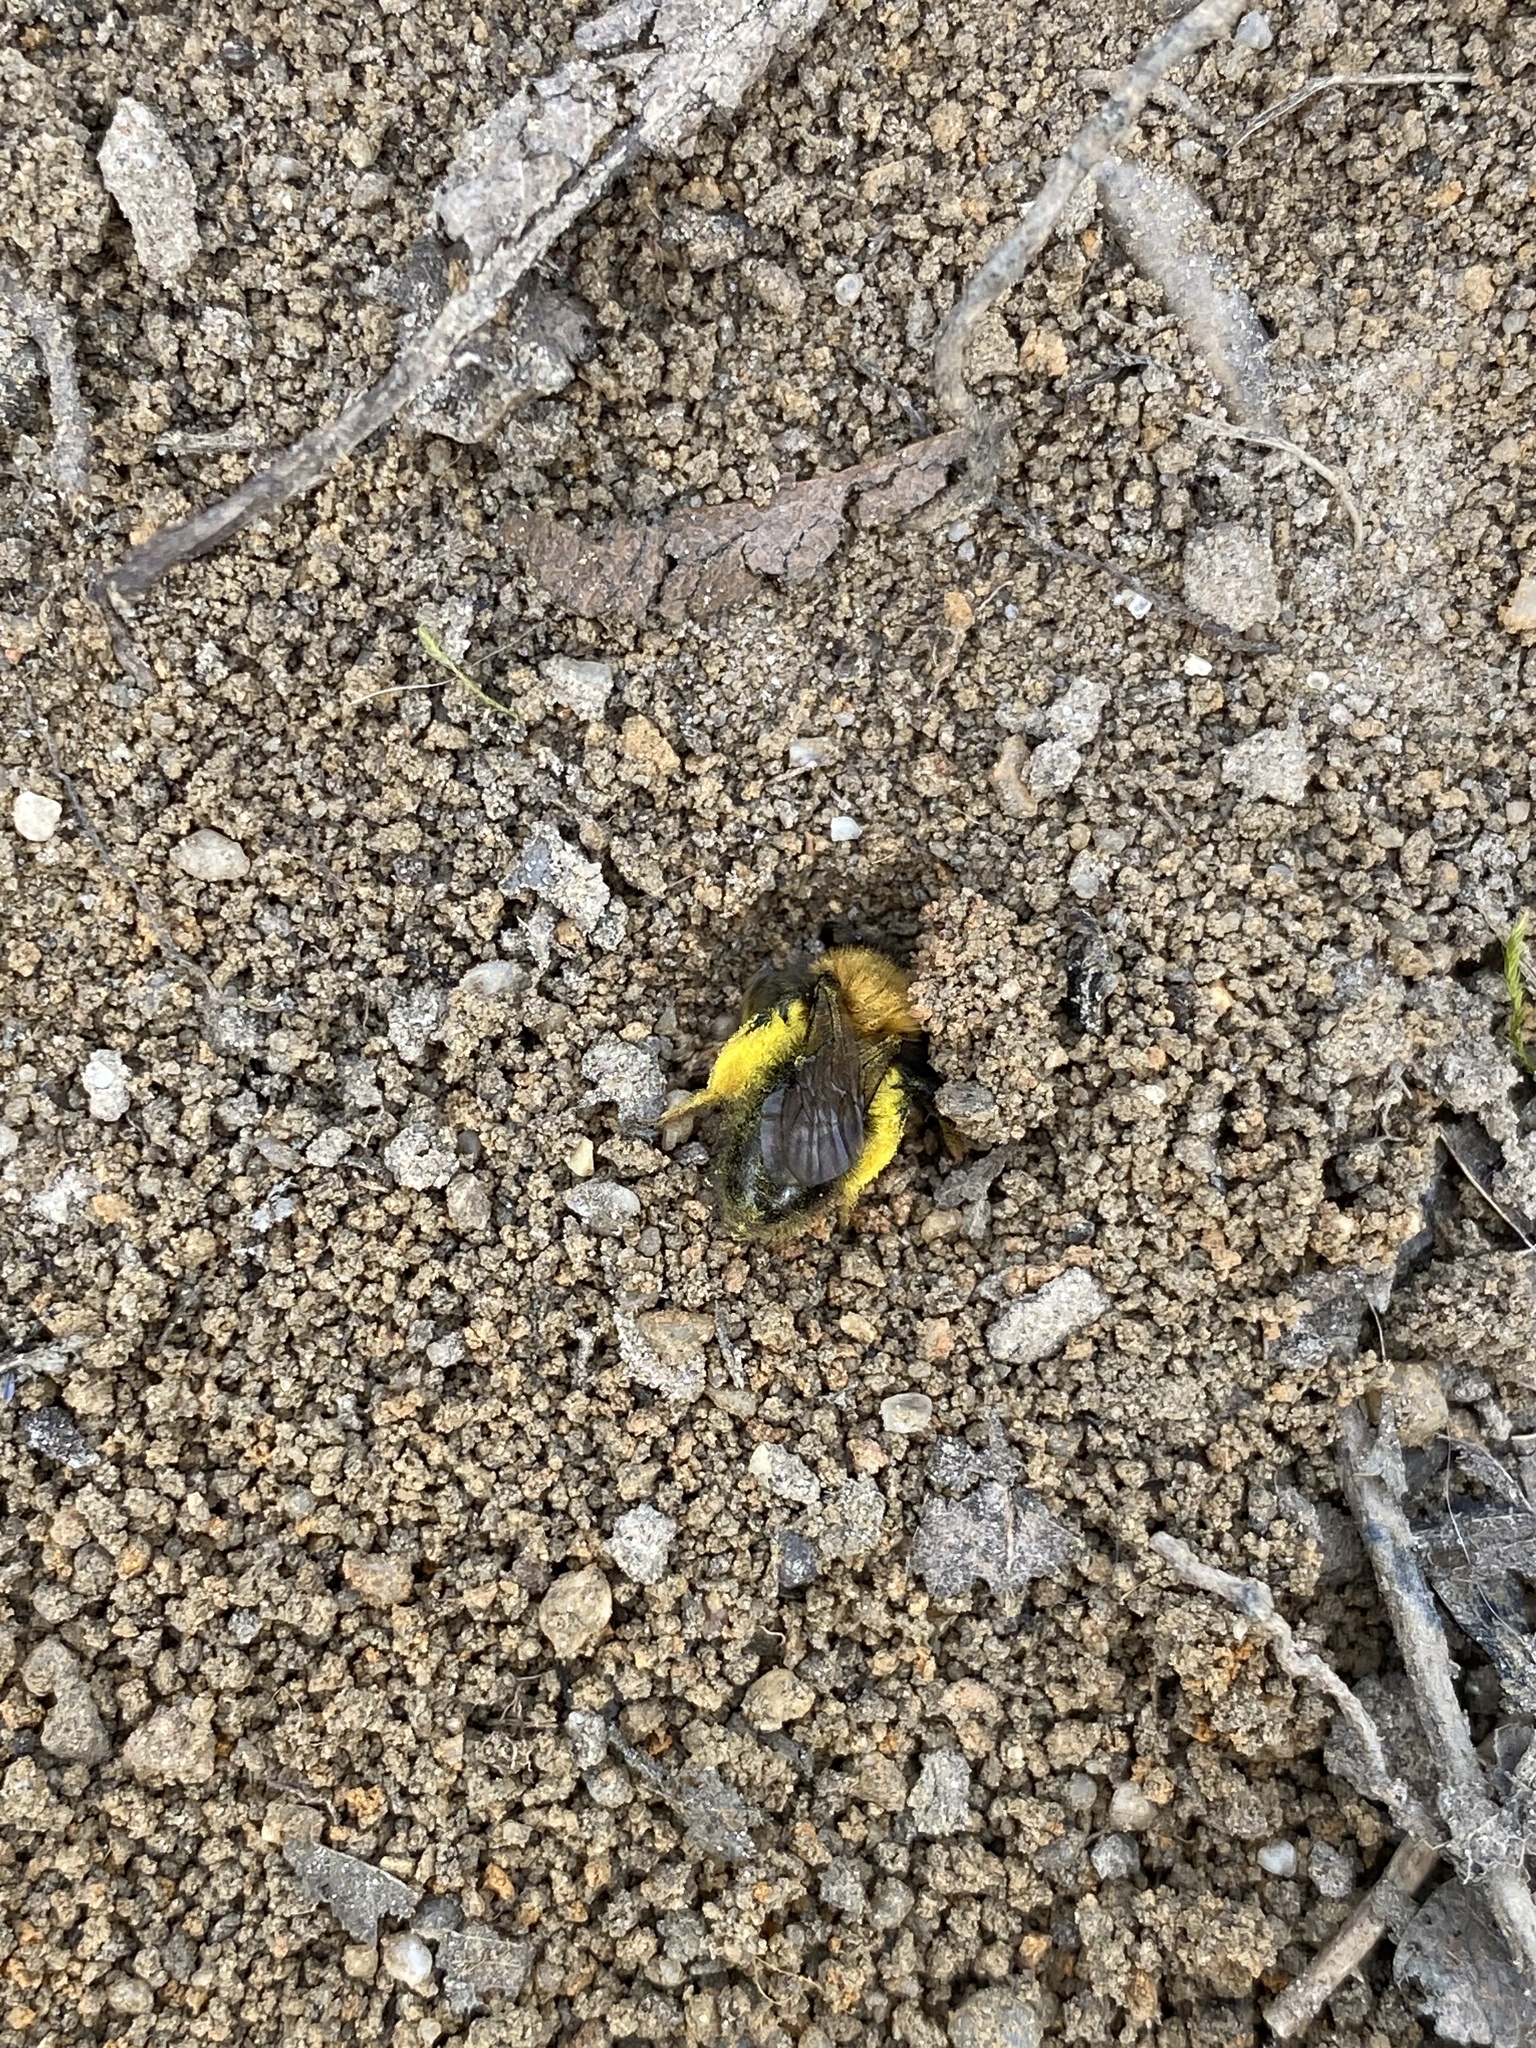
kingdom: Animalia
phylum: Arthropoda
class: Insecta
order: Hymenoptera
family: Andrenidae
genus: Andrena
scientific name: Andrena clarkella
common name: Clarke's mining bee
